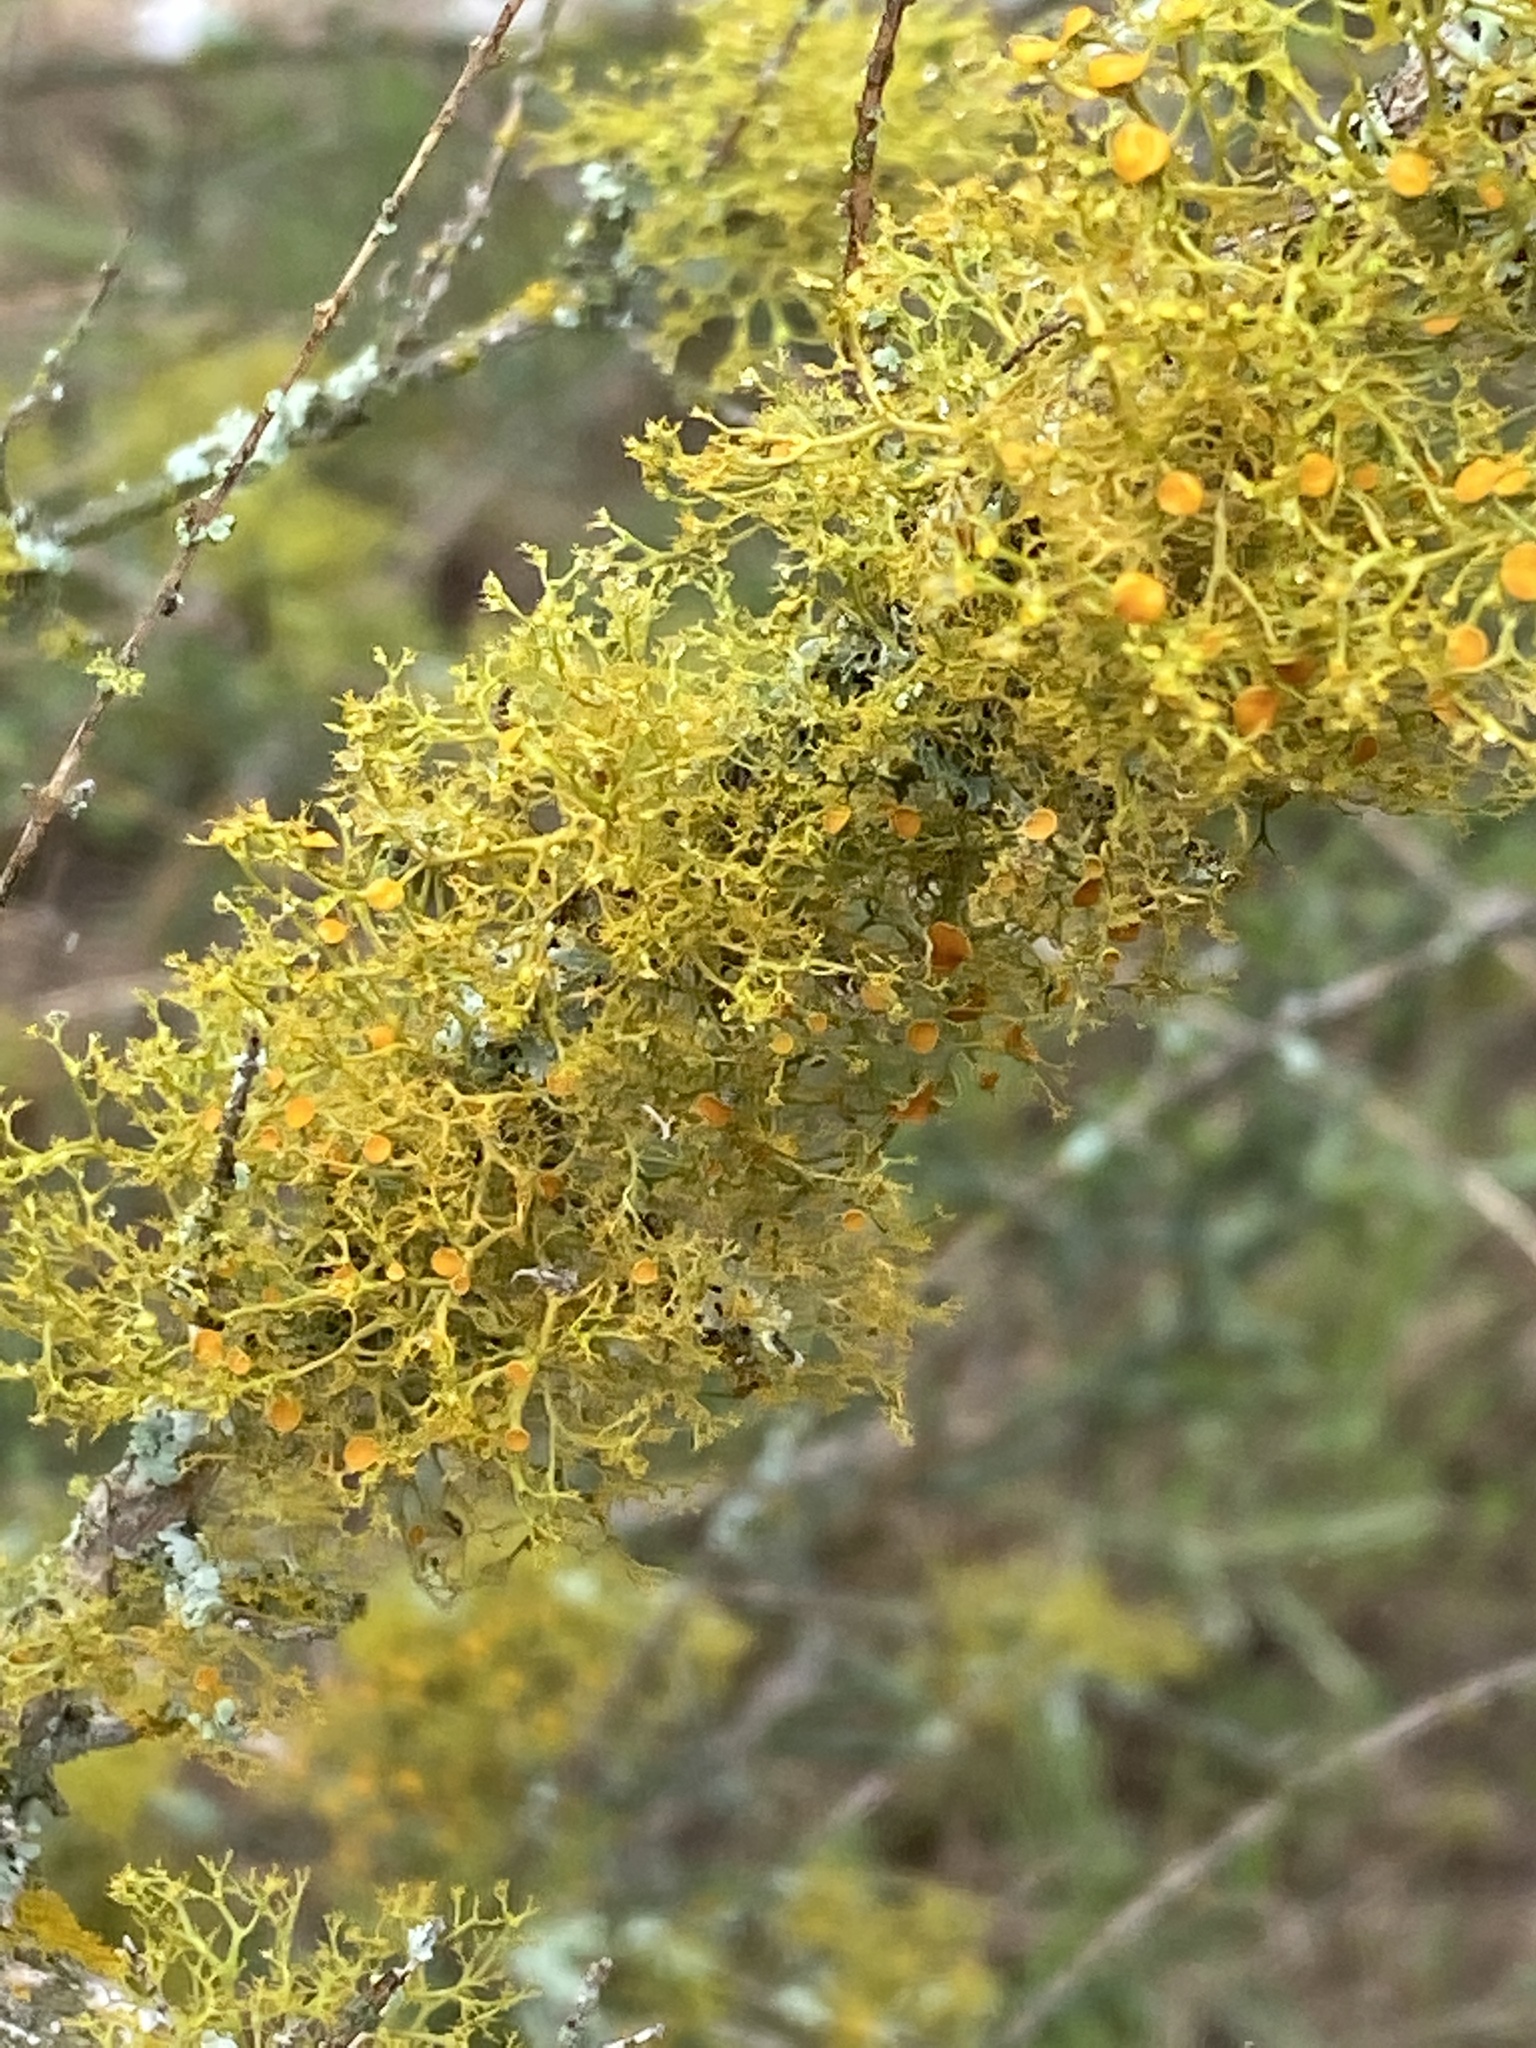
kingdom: Fungi
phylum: Ascomycota
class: Lecanoromycetes
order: Teloschistales
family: Teloschistaceae
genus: Teloschistes
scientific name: Teloschistes exilis
